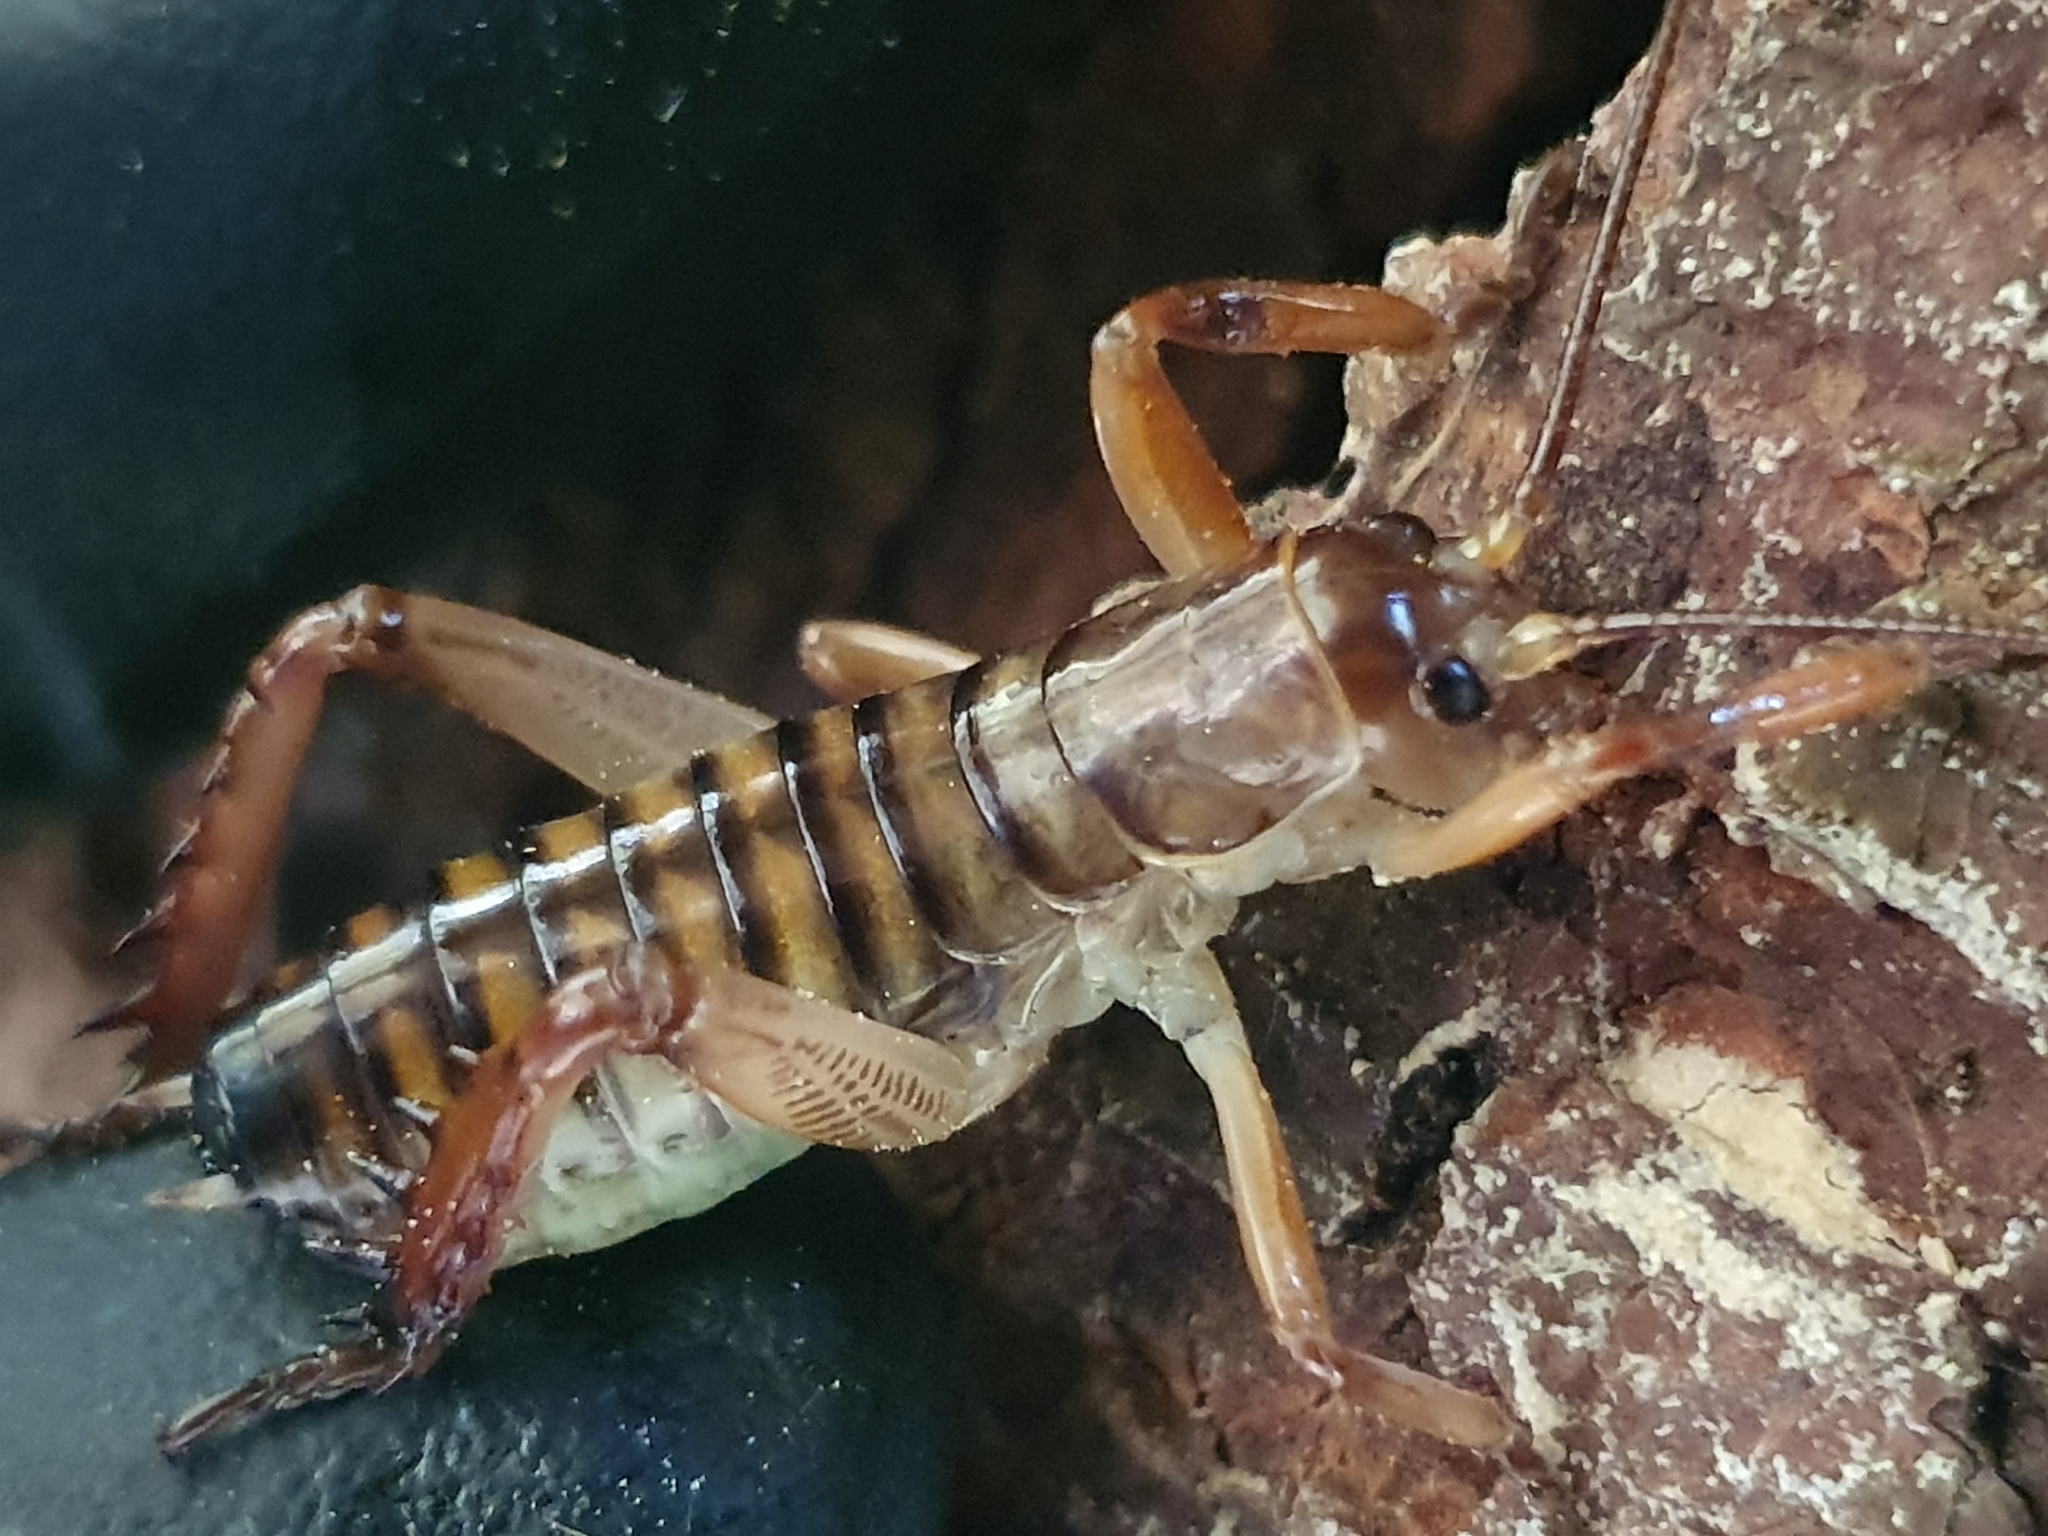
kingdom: Animalia
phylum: Arthropoda
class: Insecta
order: Orthoptera
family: Anostostomatidae
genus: Hemideina
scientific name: Hemideina crassidens
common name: Wellington tree weta
